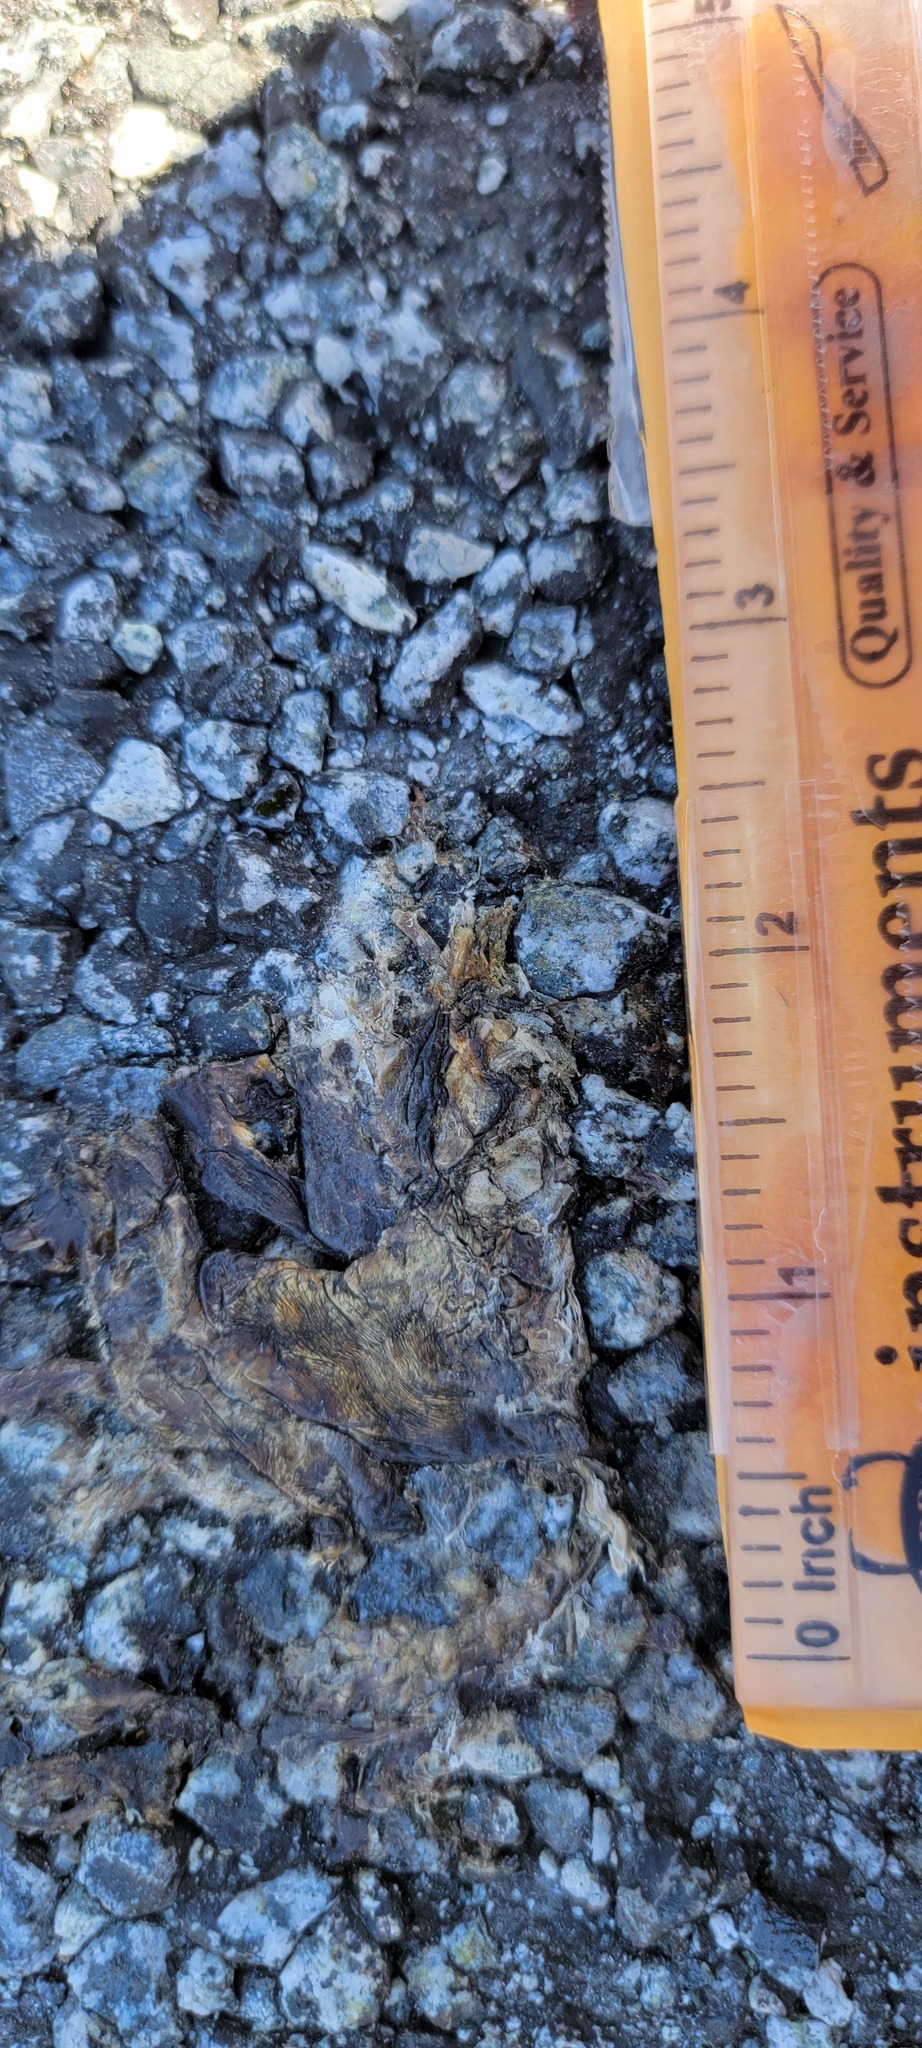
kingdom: Animalia
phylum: Chordata
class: Amphibia
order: Caudata
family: Salamandridae
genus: Taricha
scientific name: Taricha
